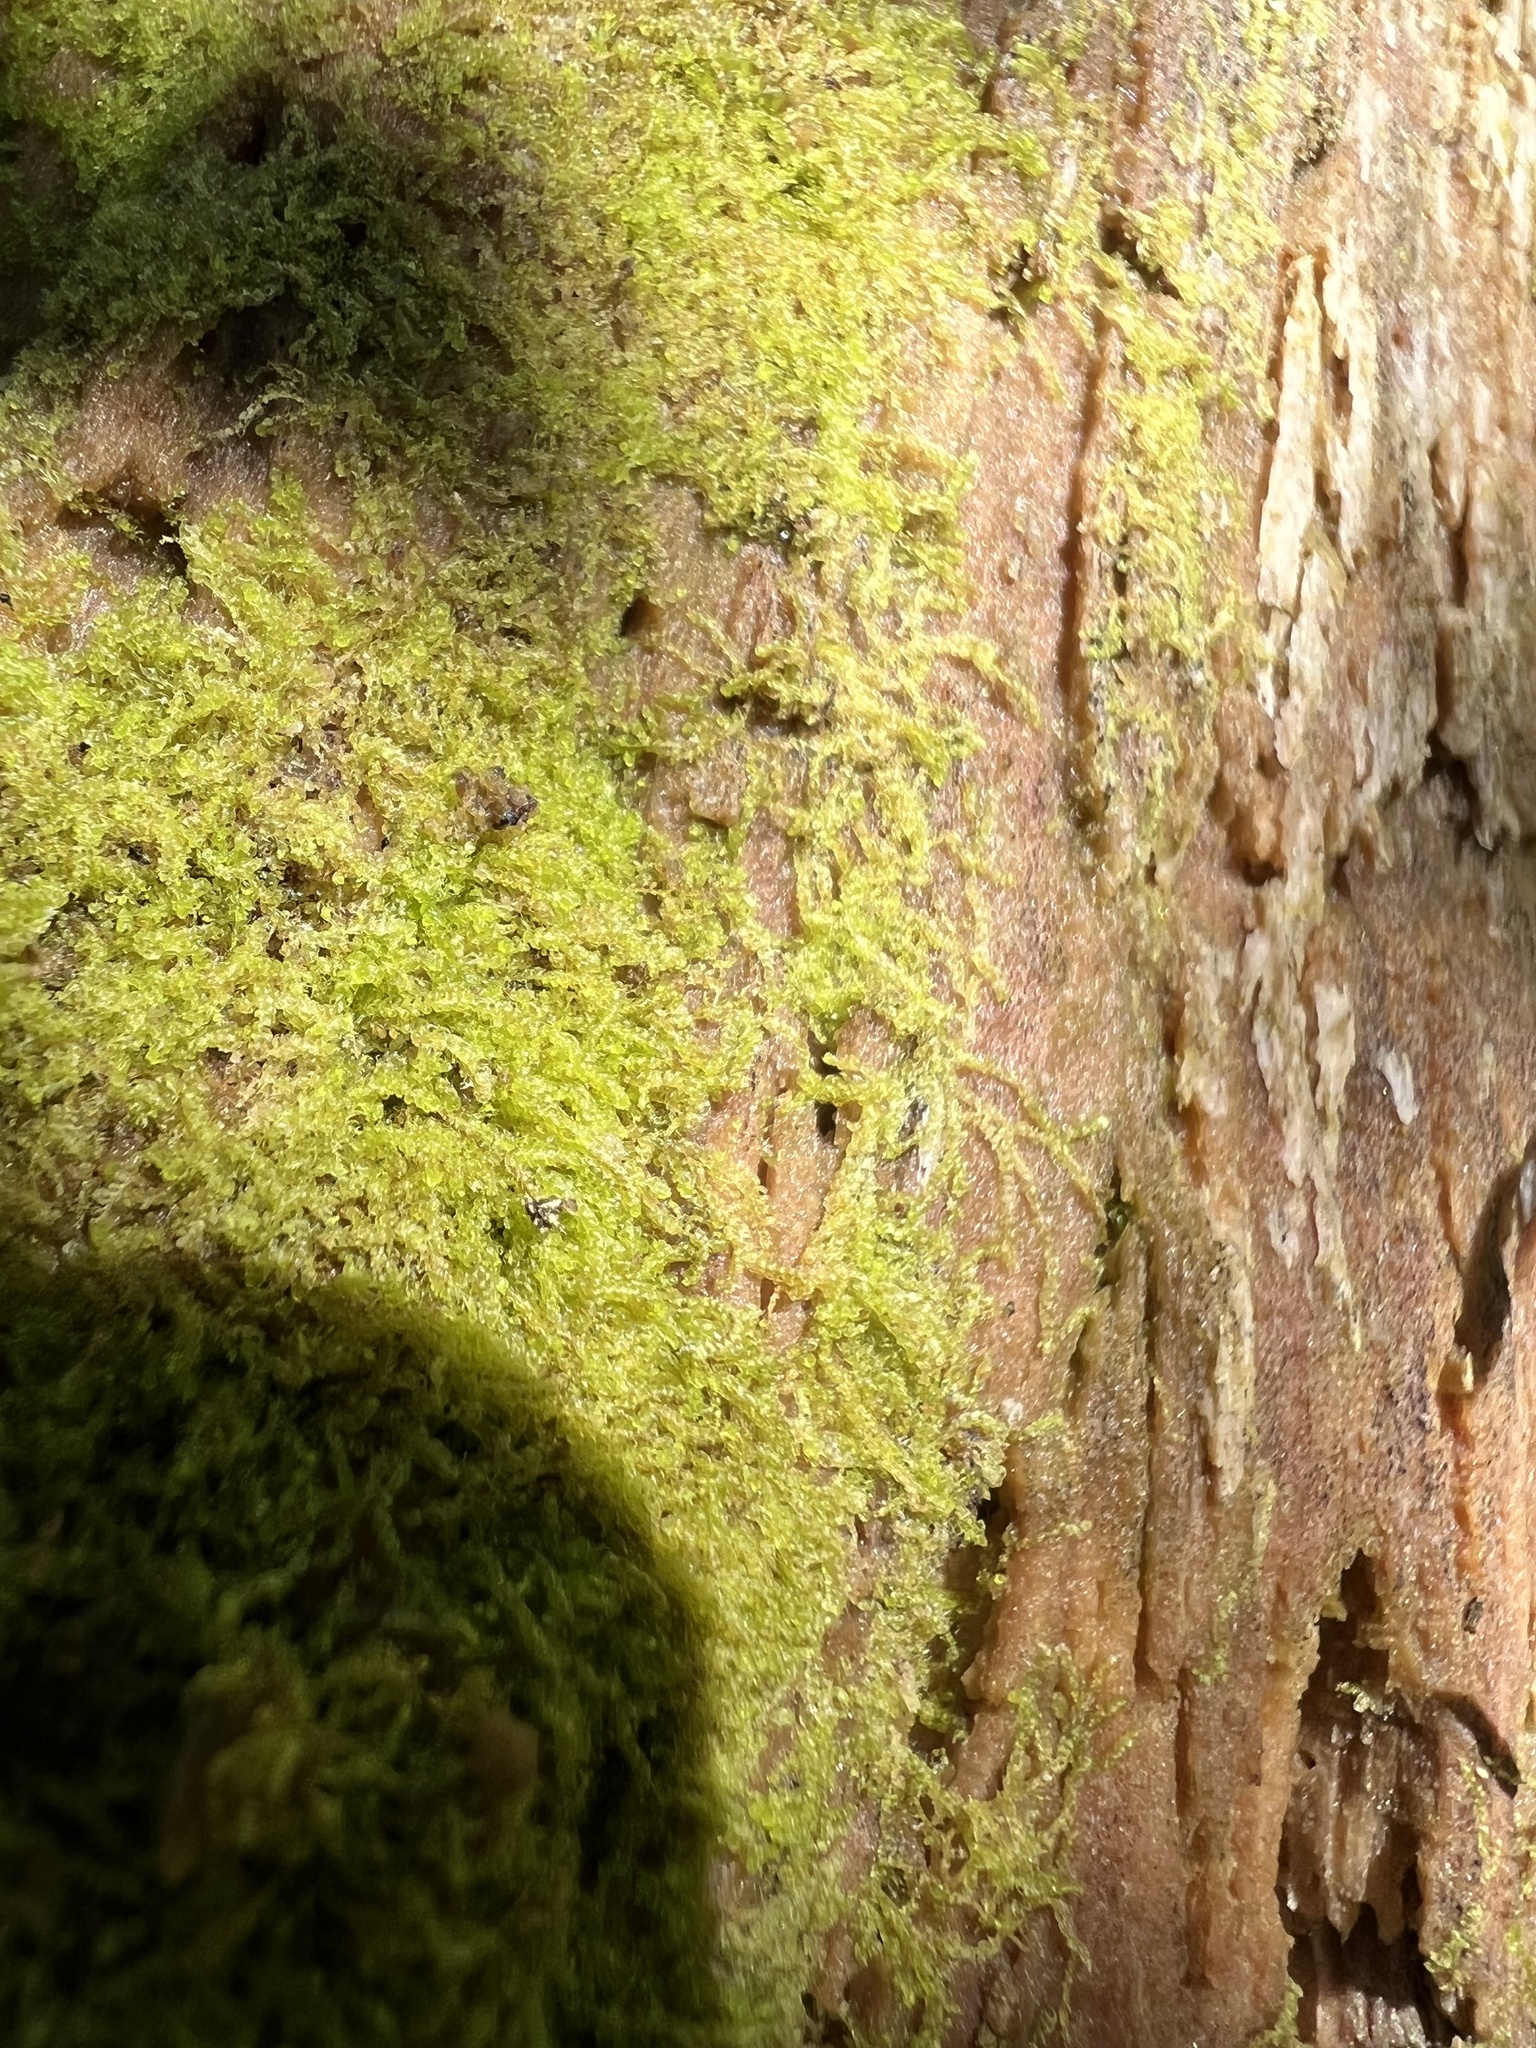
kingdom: Plantae
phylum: Marchantiophyta
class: Jungermanniopsida
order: Jungermanniales
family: Cephaloziaceae
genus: Nowellia
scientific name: Nowellia curvifolia
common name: Wood rustwort
